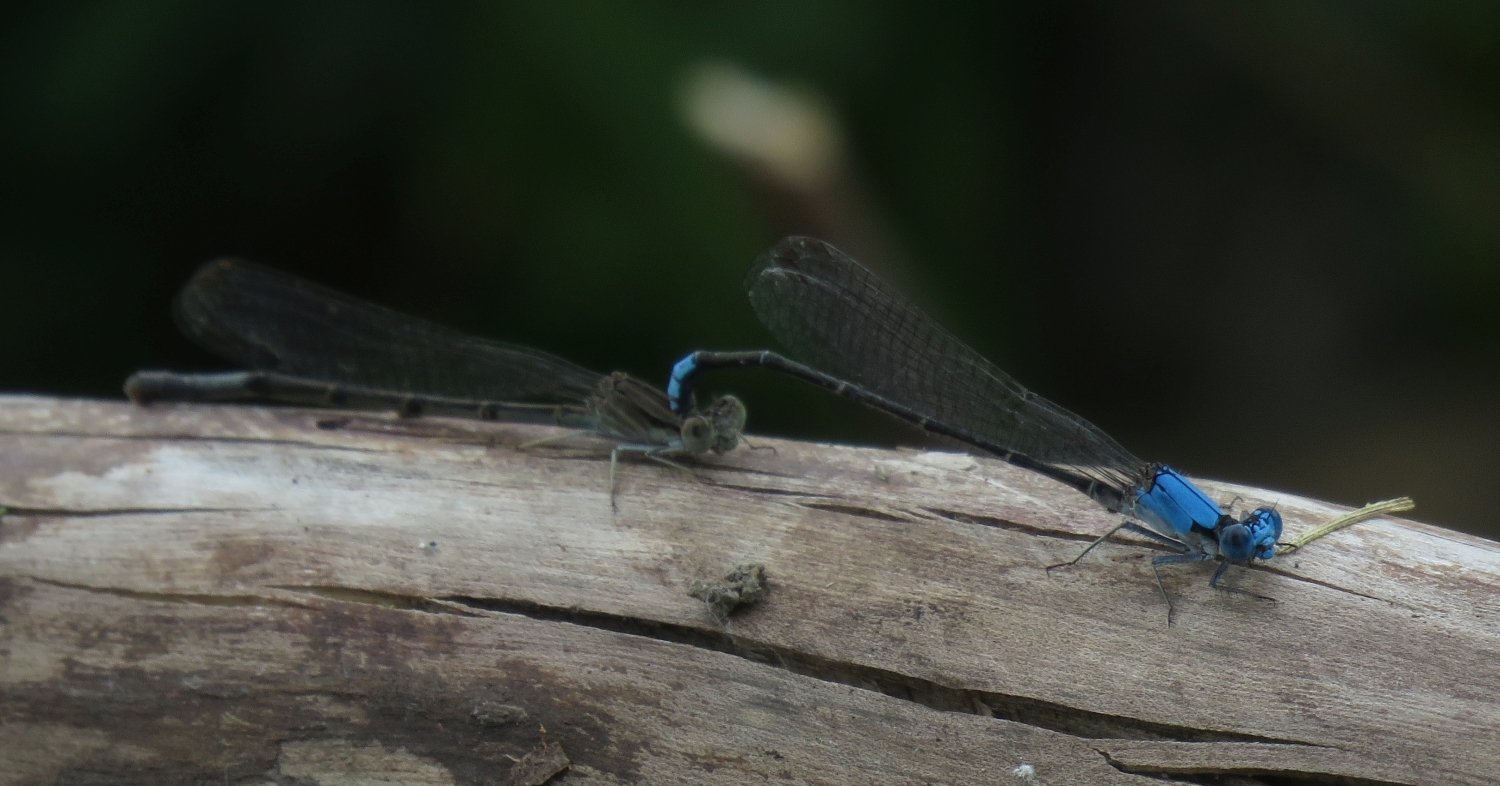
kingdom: Animalia
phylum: Arthropoda
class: Insecta
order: Odonata
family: Coenagrionidae
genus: Argia
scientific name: Argia apicalis
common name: Blue-fronted dancer
